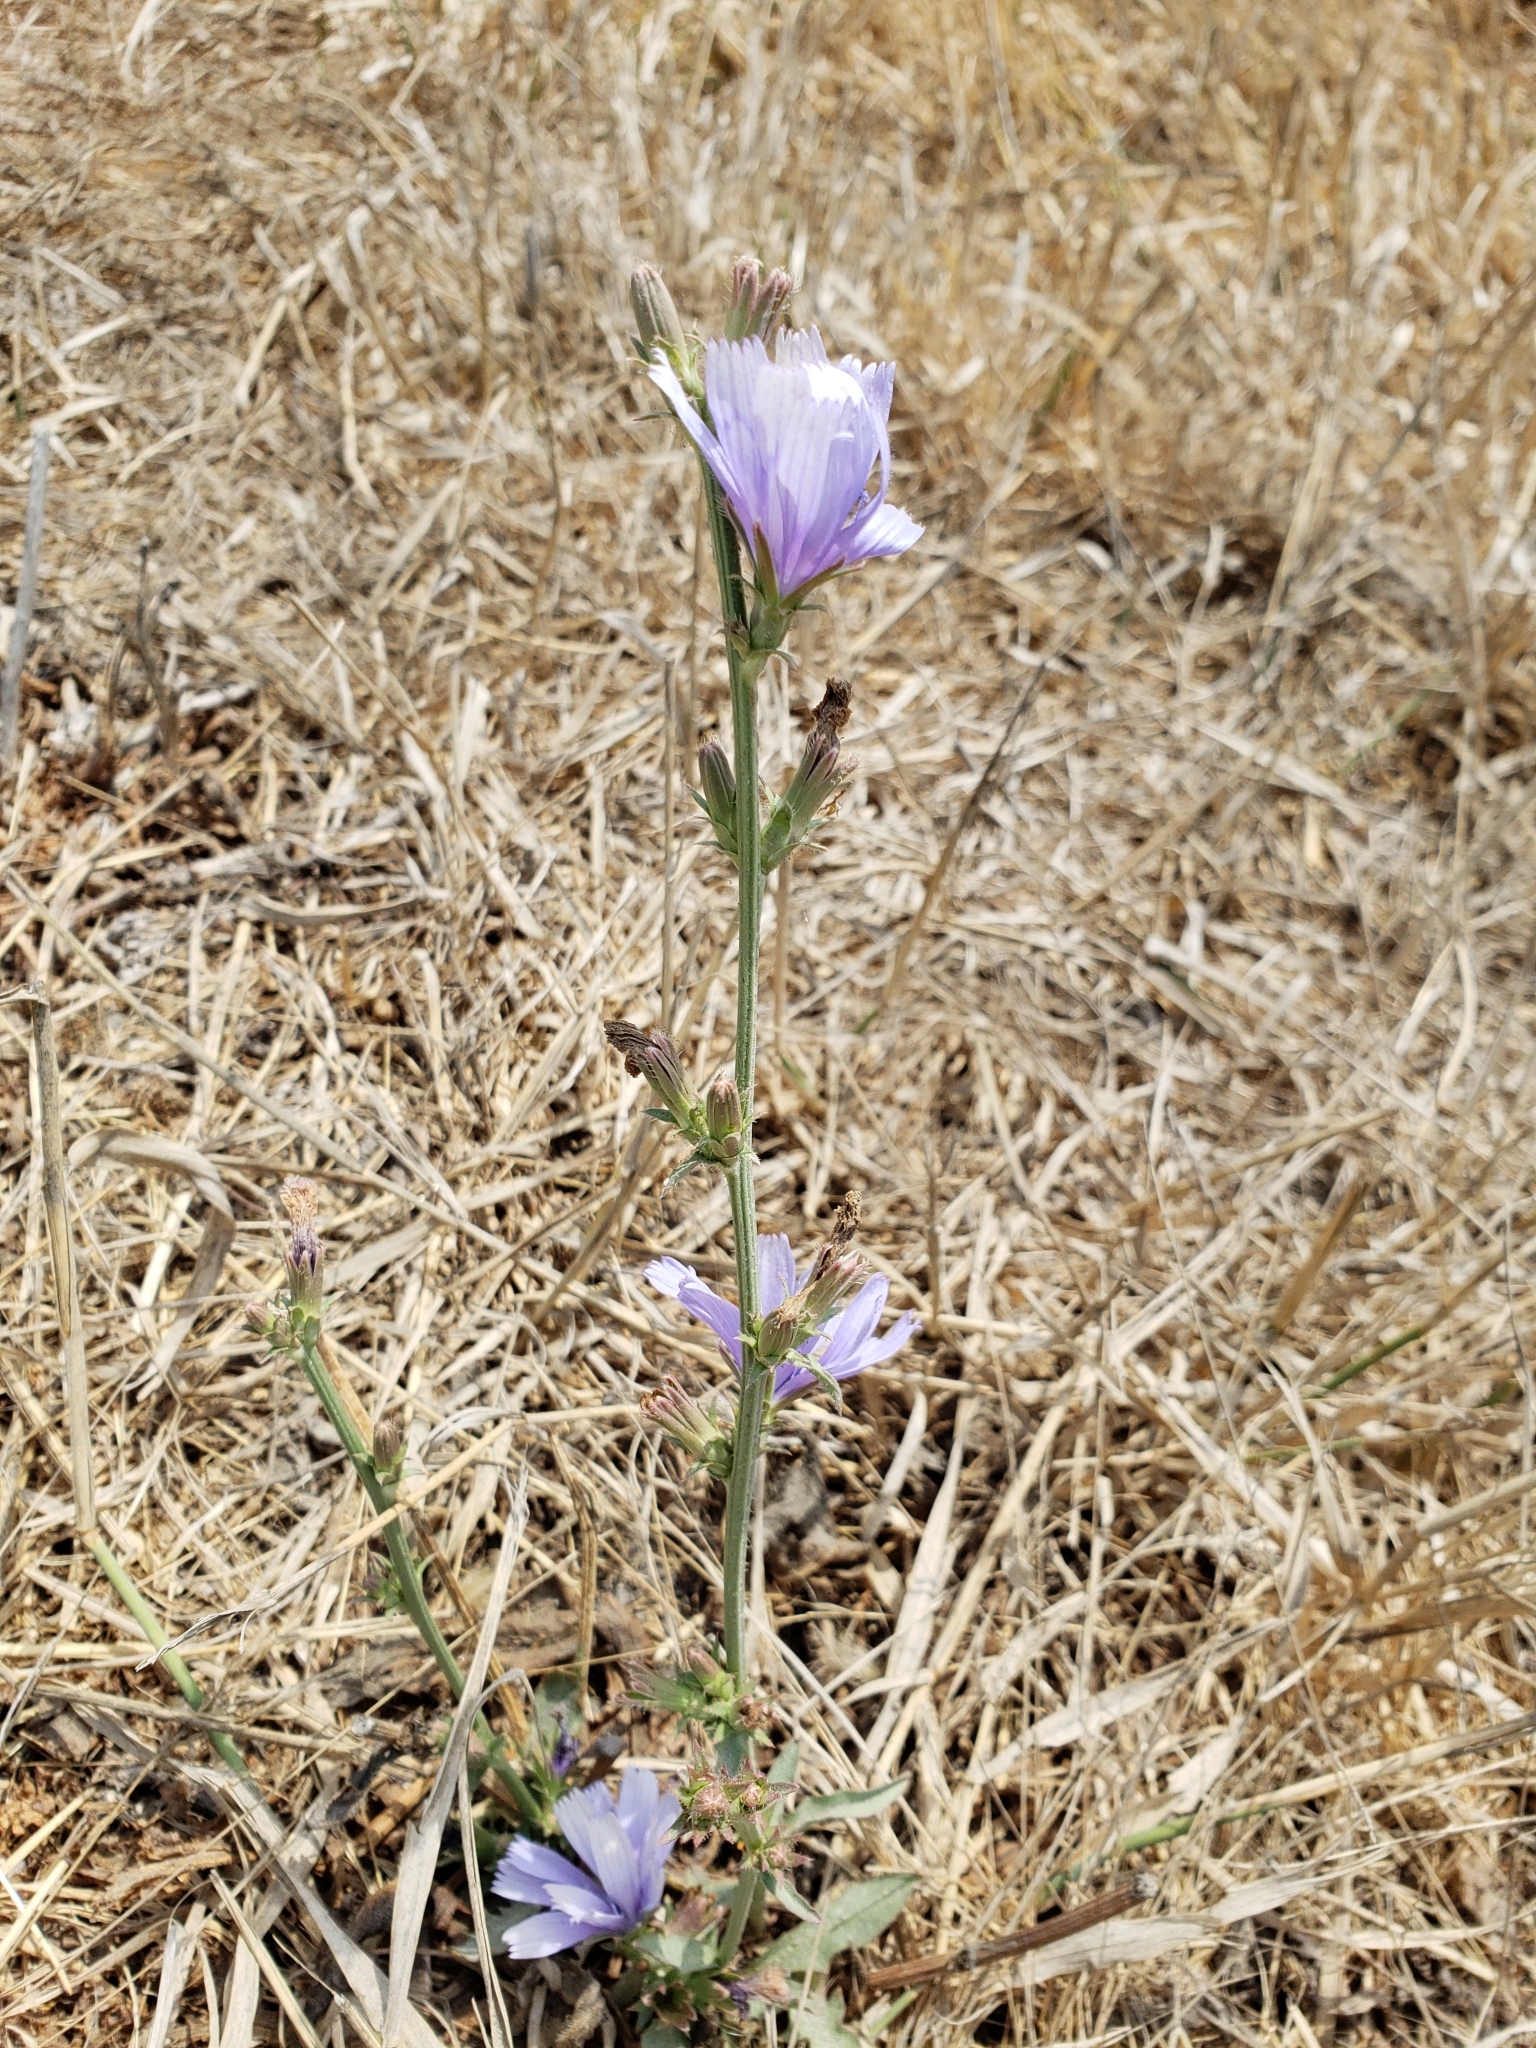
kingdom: Plantae
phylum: Tracheophyta
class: Magnoliopsida
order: Asterales
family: Asteraceae
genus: Cichorium
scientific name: Cichorium intybus
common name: Chicory
